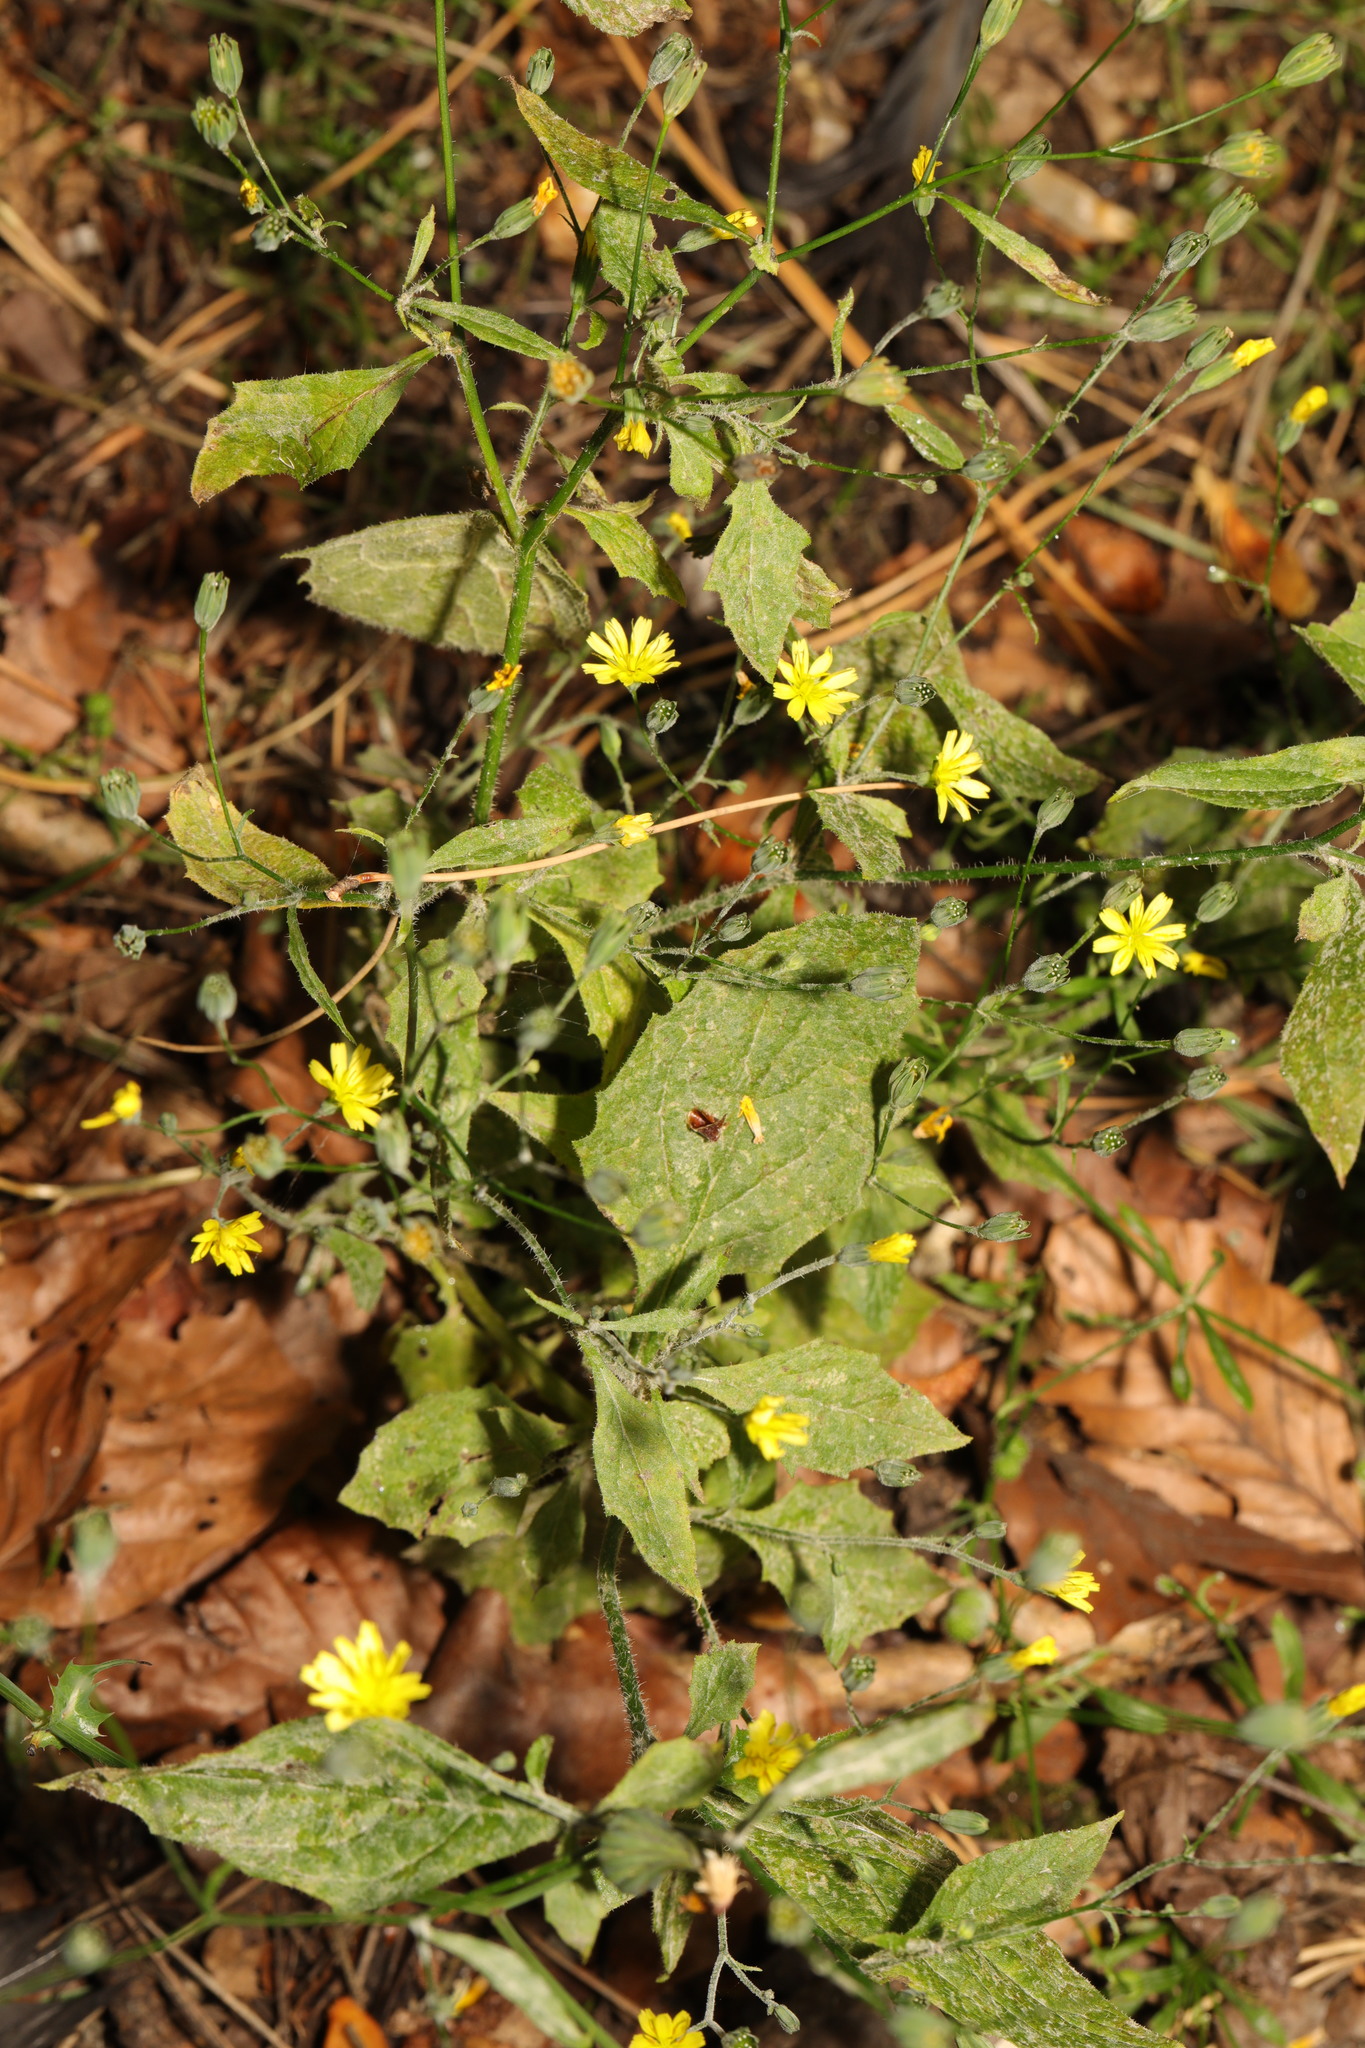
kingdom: Plantae
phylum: Tracheophyta
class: Magnoliopsida
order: Asterales
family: Asteraceae
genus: Lapsana
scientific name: Lapsana communis
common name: Nipplewort
